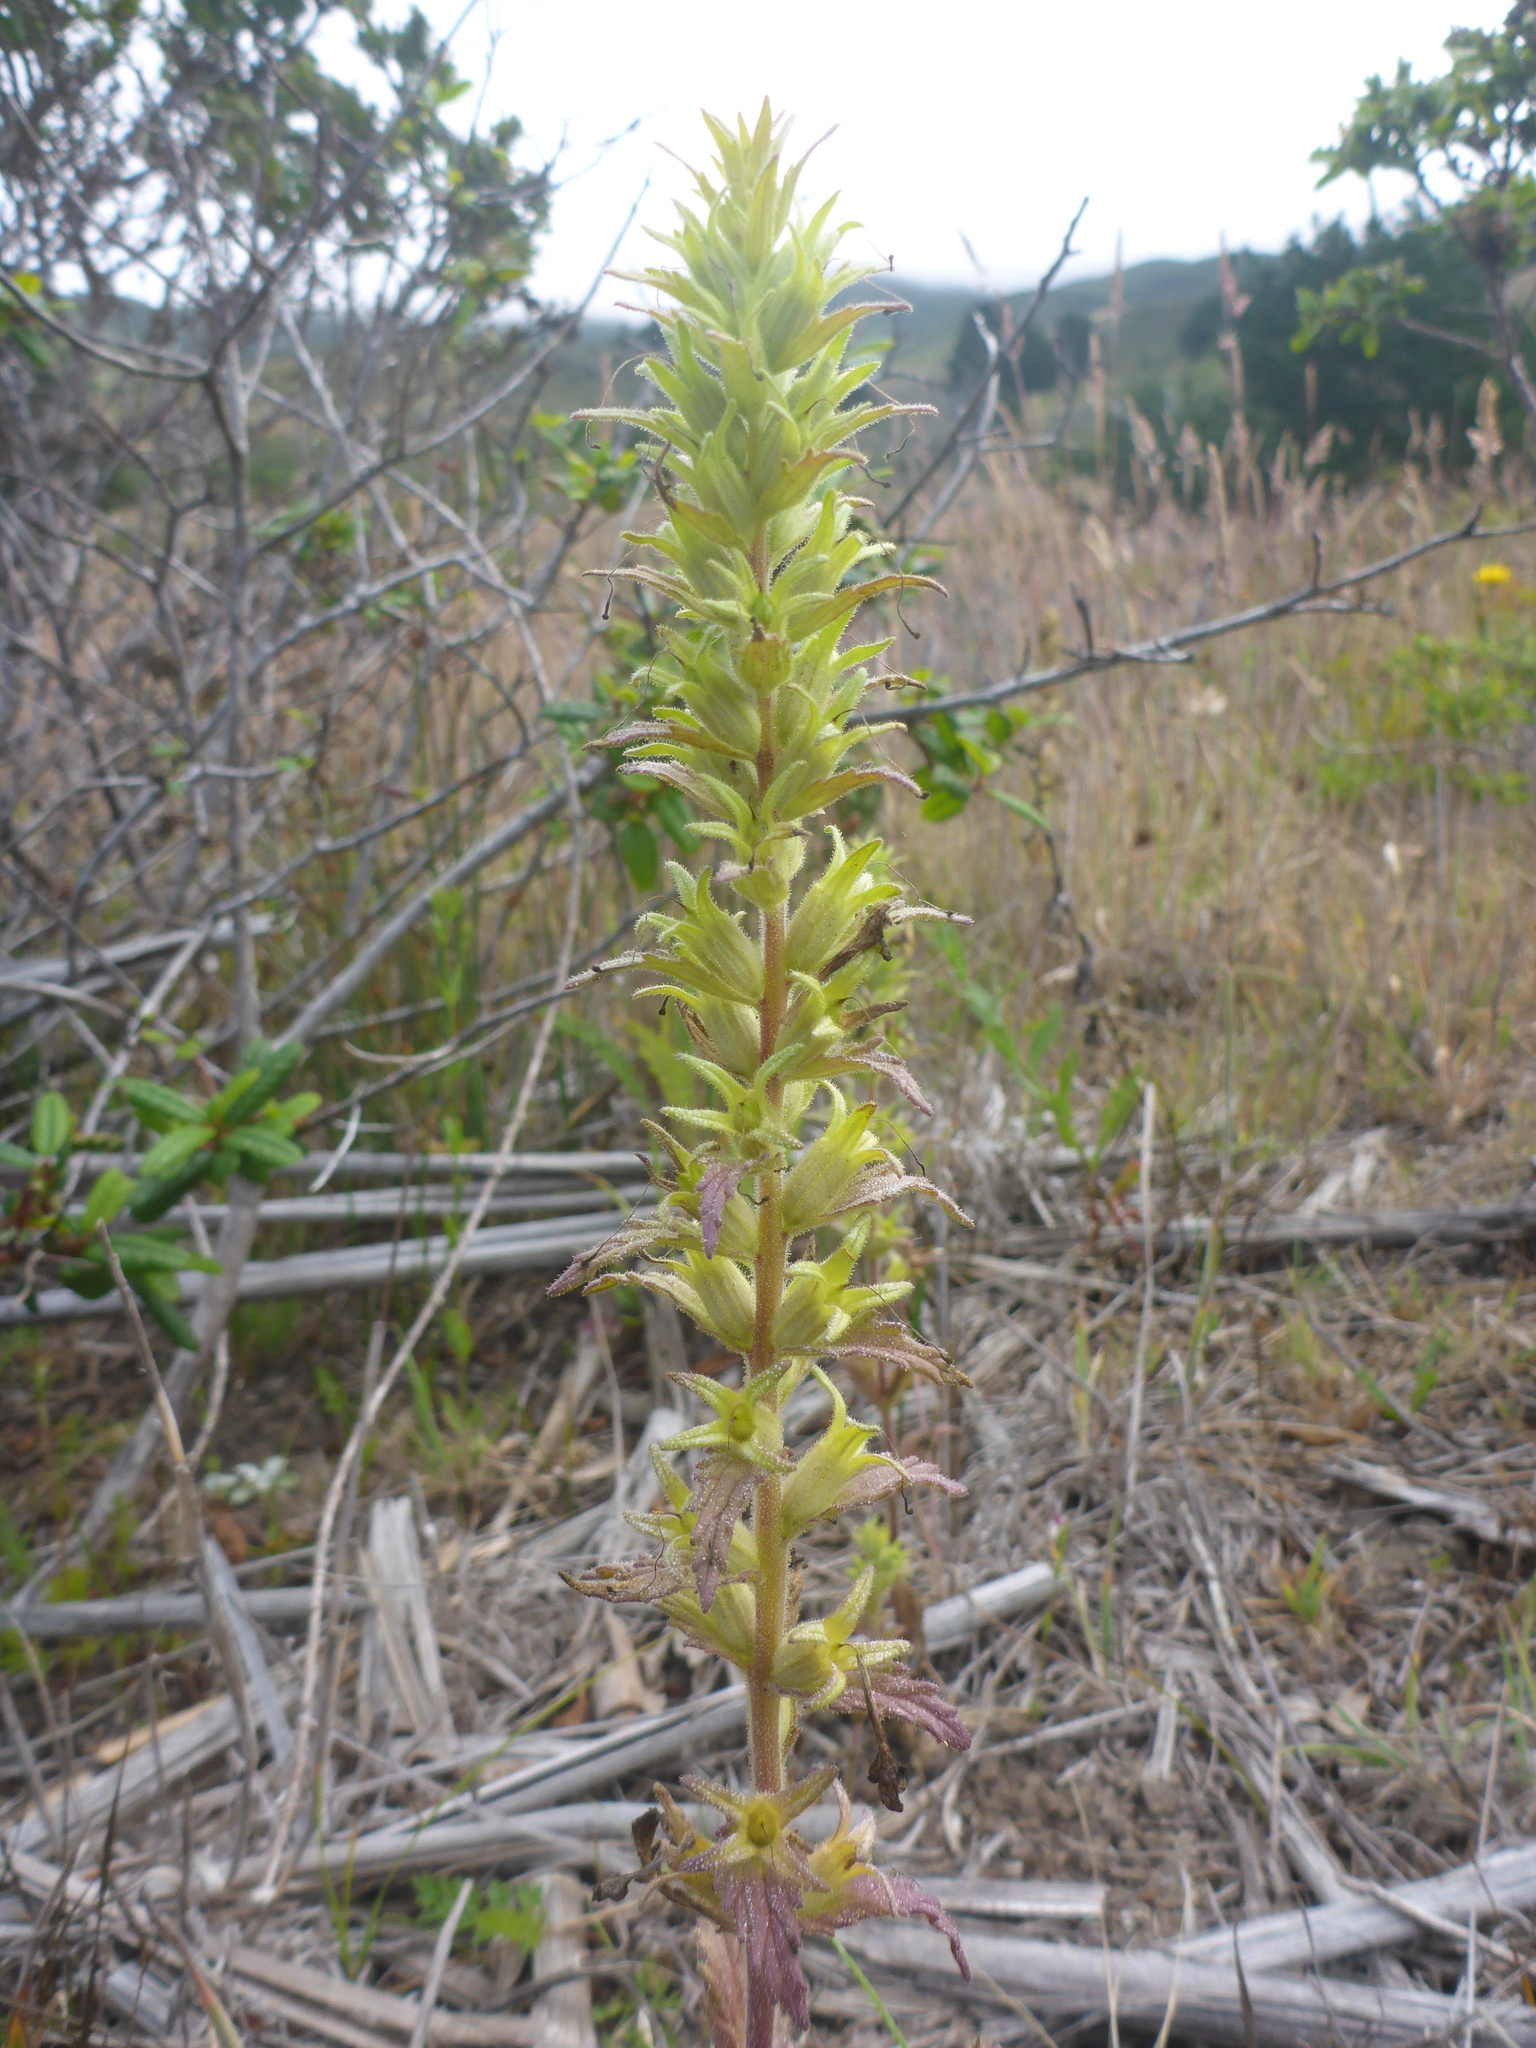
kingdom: Plantae
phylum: Tracheophyta
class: Magnoliopsida
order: Lamiales
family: Orobanchaceae
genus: Bellardia
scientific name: Bellardia viscosa
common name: Sticky parentucellia
